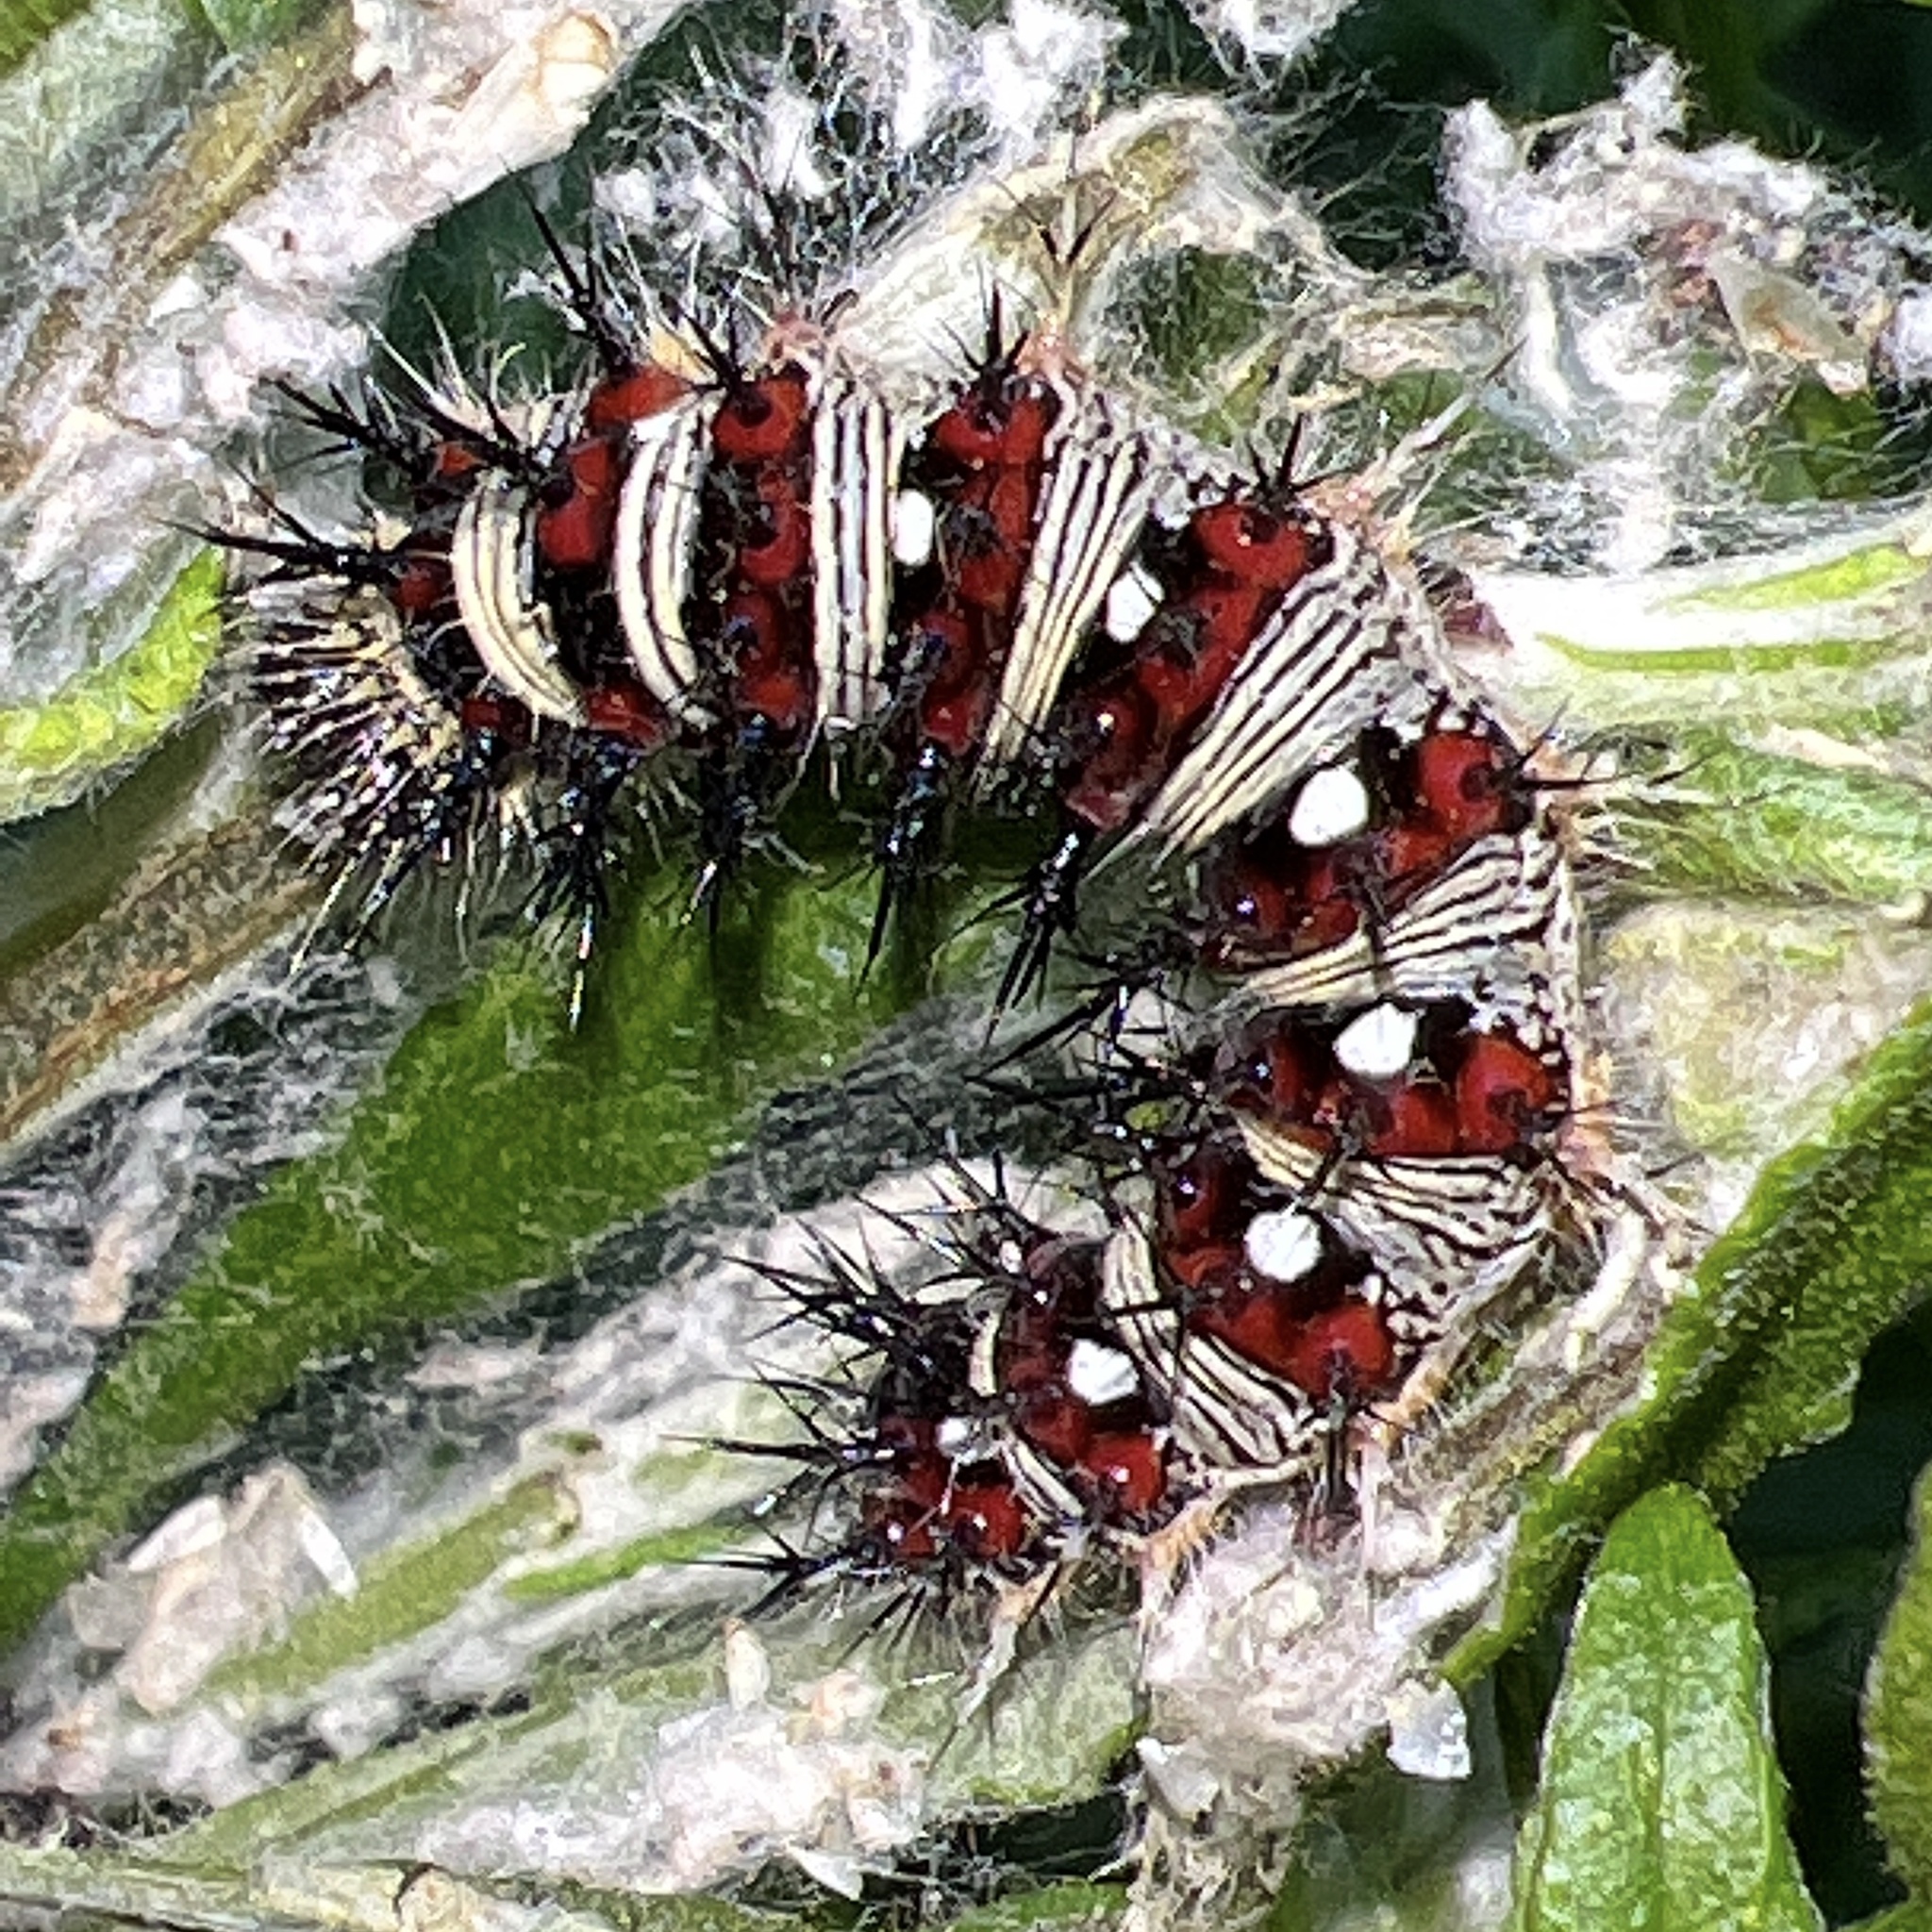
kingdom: Animalia
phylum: Arthropoda
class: Insecta
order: Lepidoptera
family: Nymphalidae
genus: Vanessa
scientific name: Vanessa virginiensis
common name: American lady
